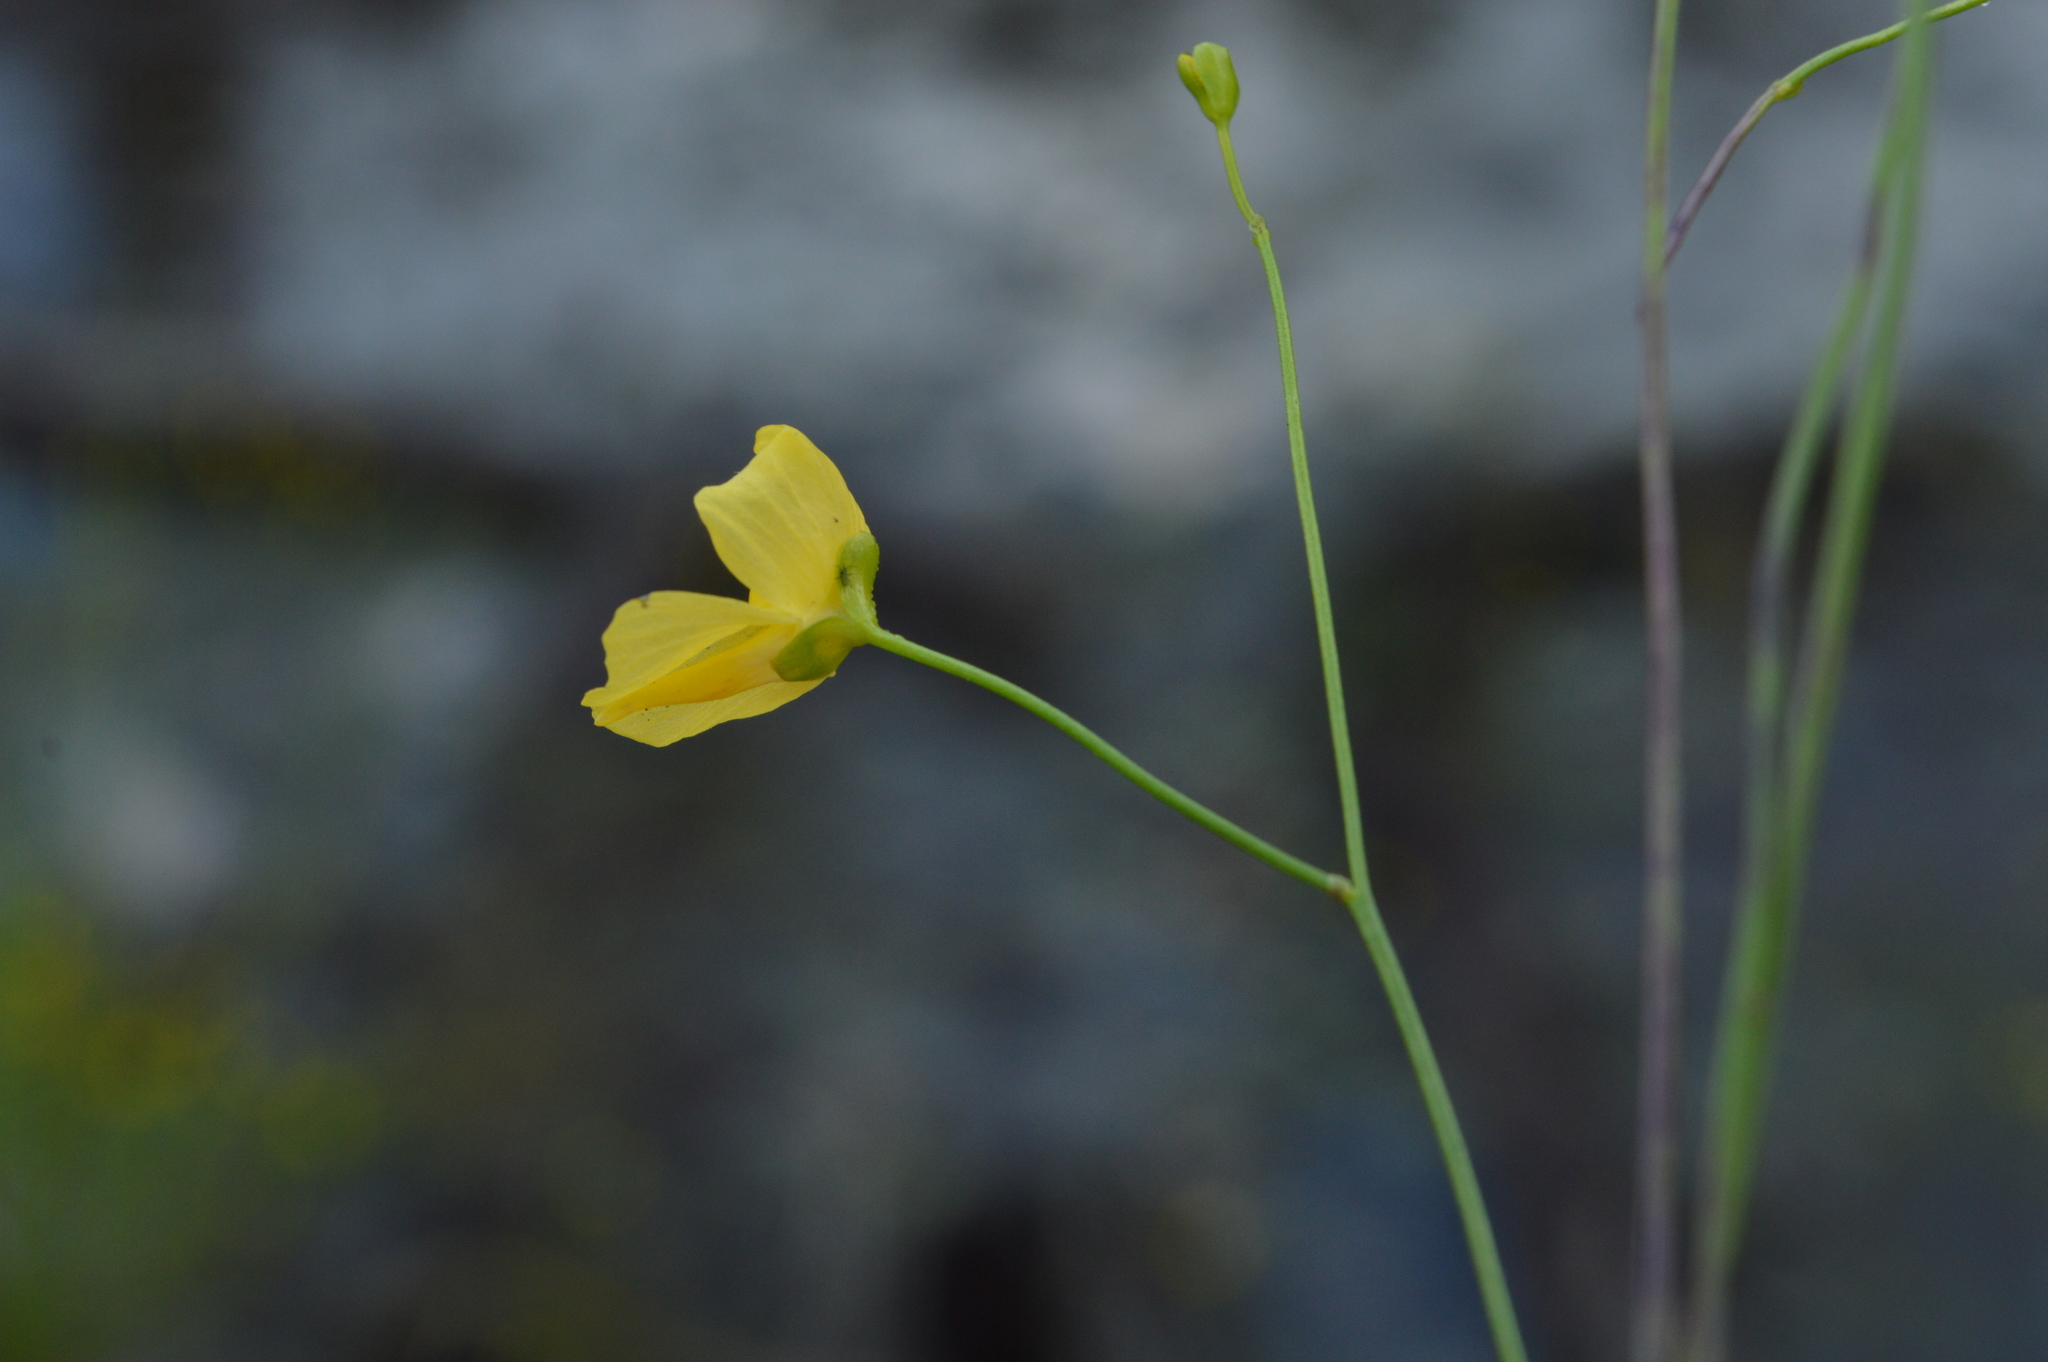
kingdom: Plantae
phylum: Tracheophyta
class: Magnoliopsida
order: Lamiales
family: Lentibulariaceae
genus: Utricularia
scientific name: Utricularia gibba
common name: Humped bladderwort
